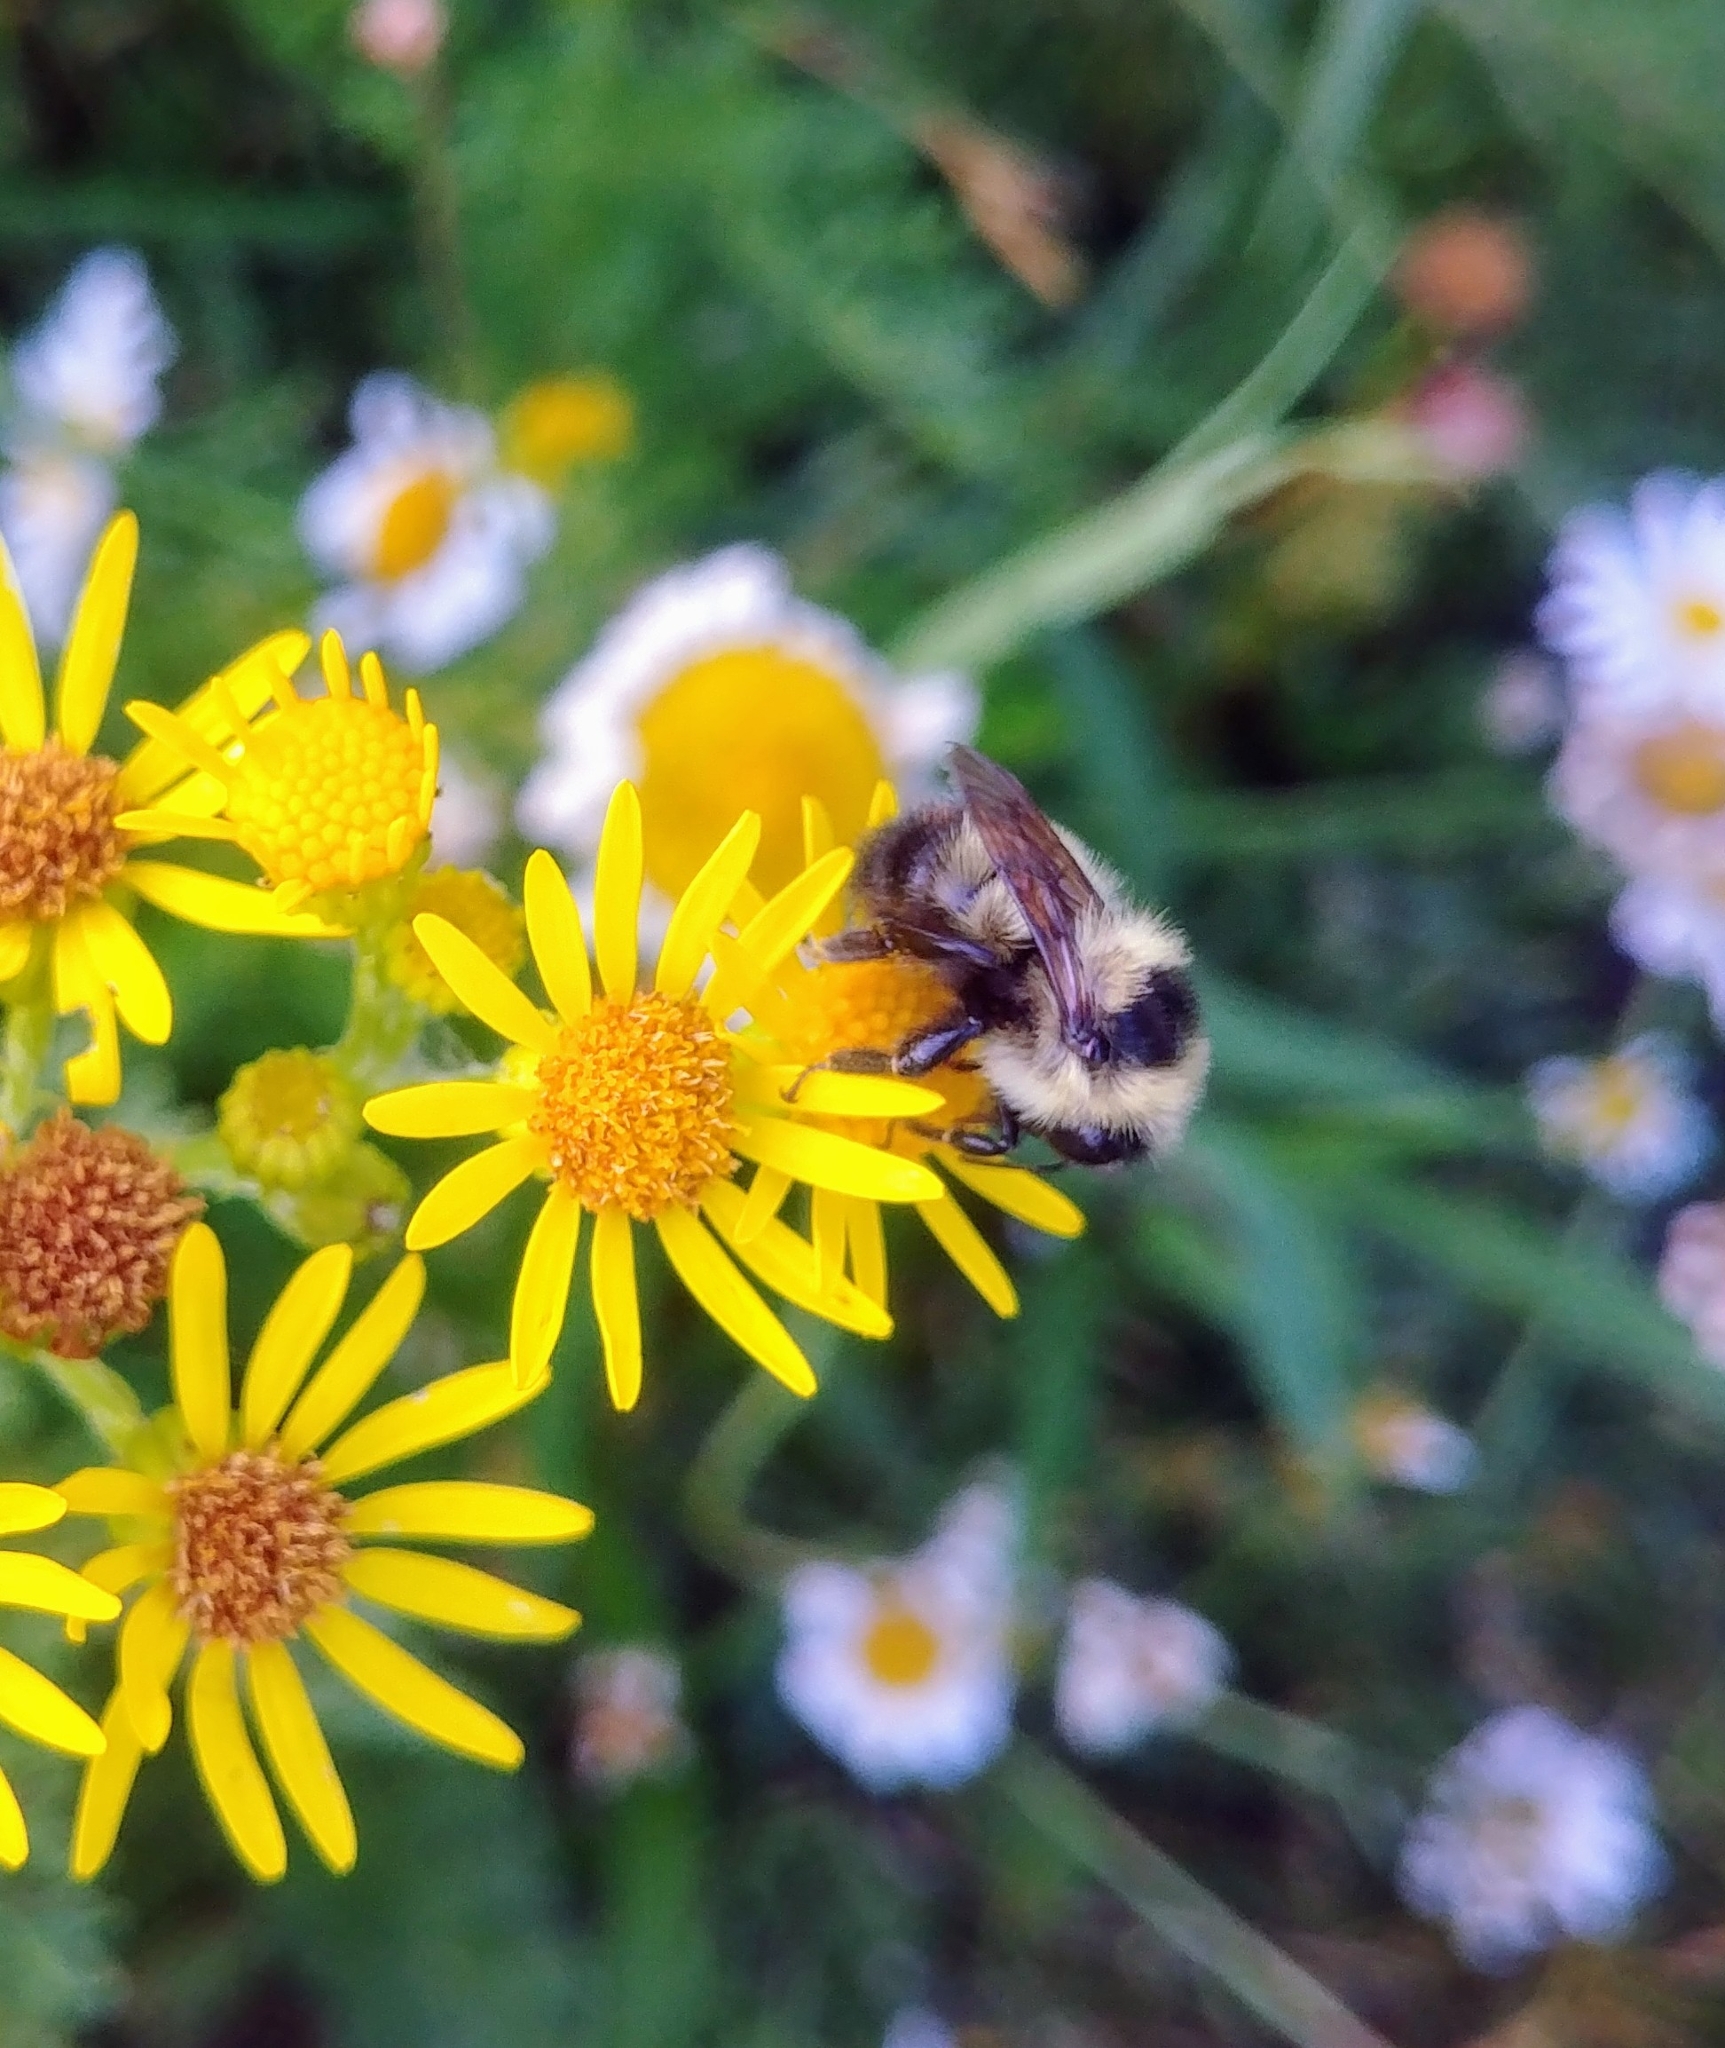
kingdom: Animalia
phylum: Arthropoda
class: Insecta
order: Hymenoptera
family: Apidae
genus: Bombus
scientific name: Bombus rufocinctus
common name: Red-belted bumble bee
